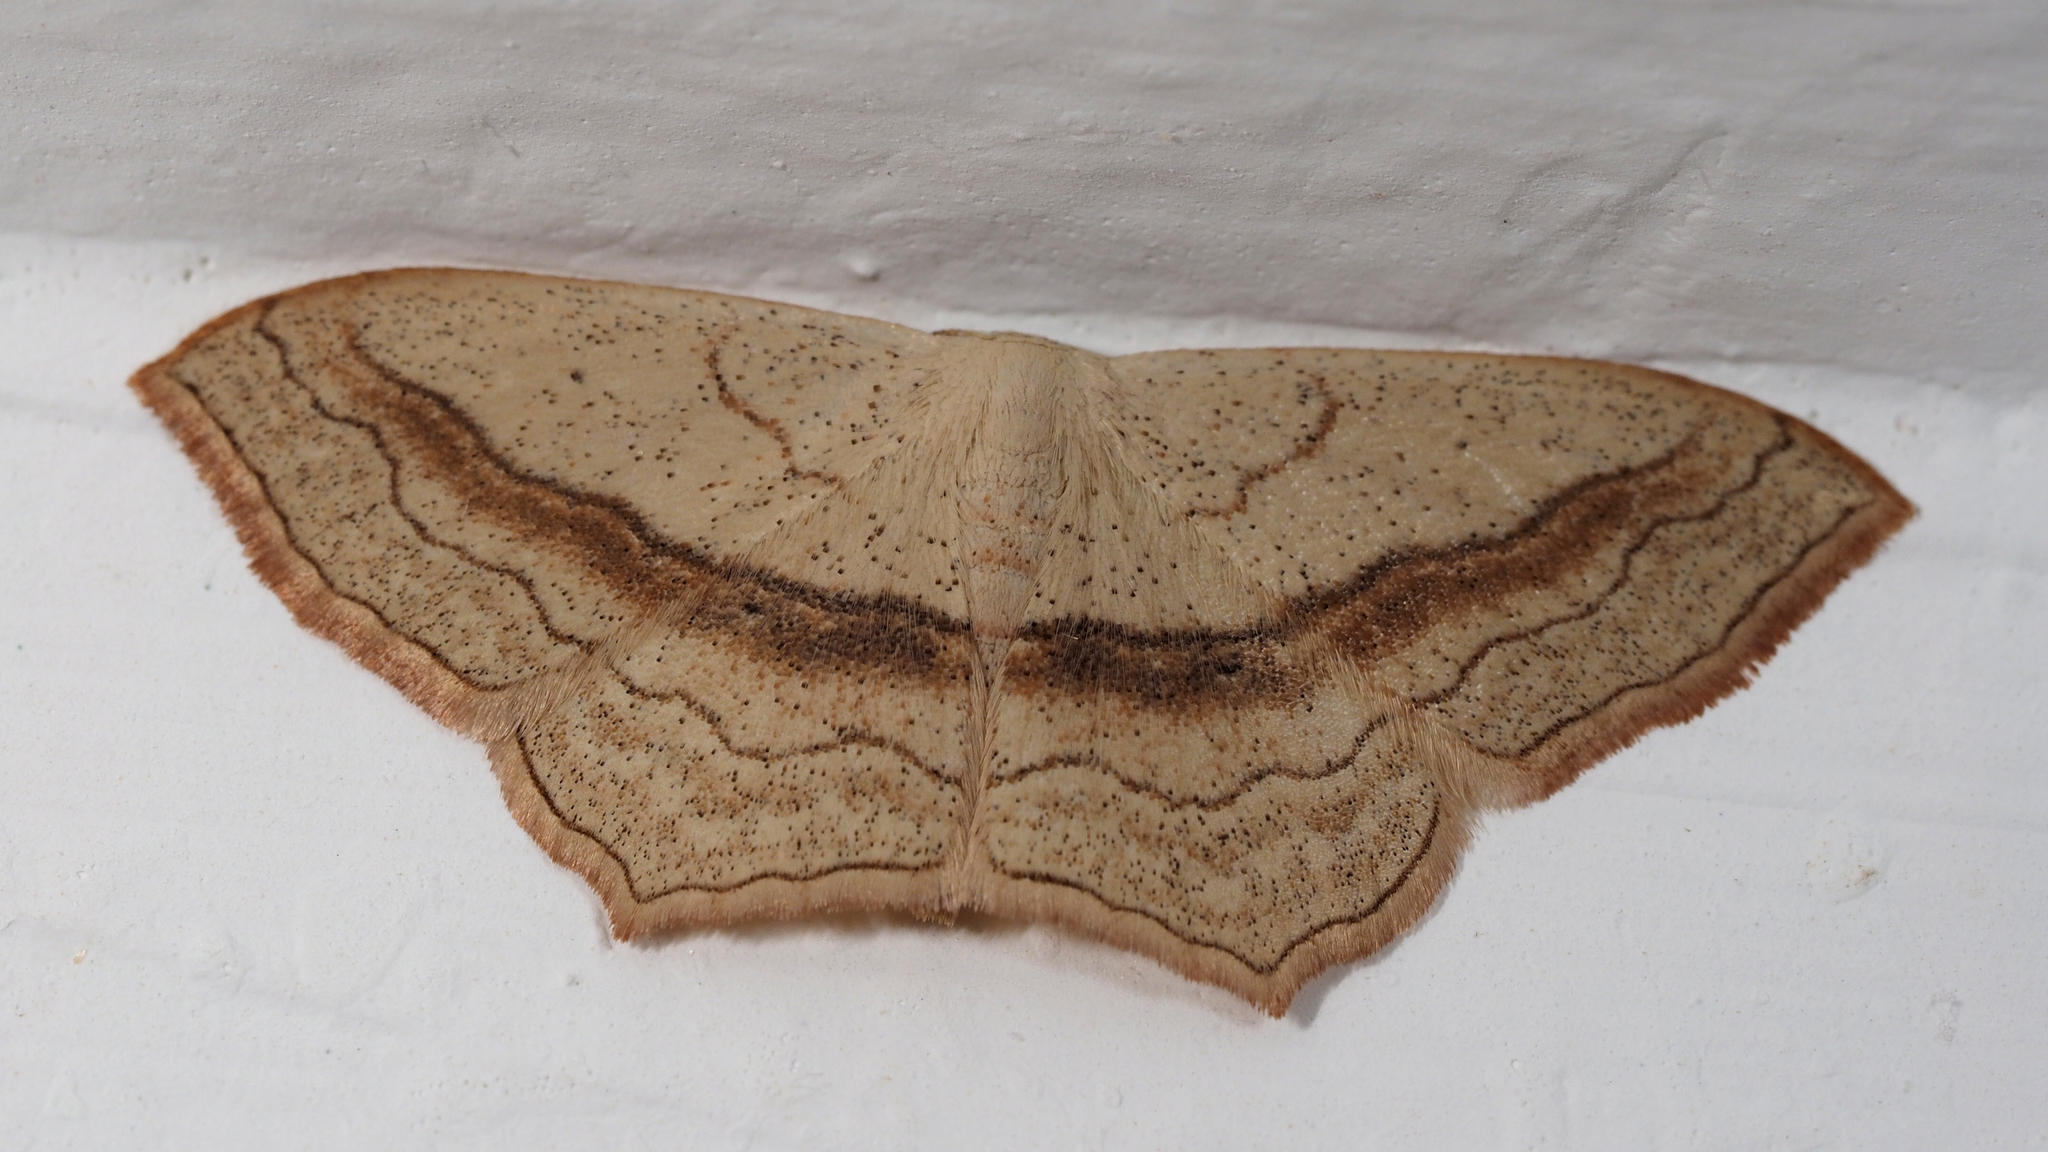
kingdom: Animalia
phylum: Arthropoda
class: Insecta
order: Lepidoptera
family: Geometridae
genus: Scopula
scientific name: Scopula imitaria
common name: Small blood-vein
